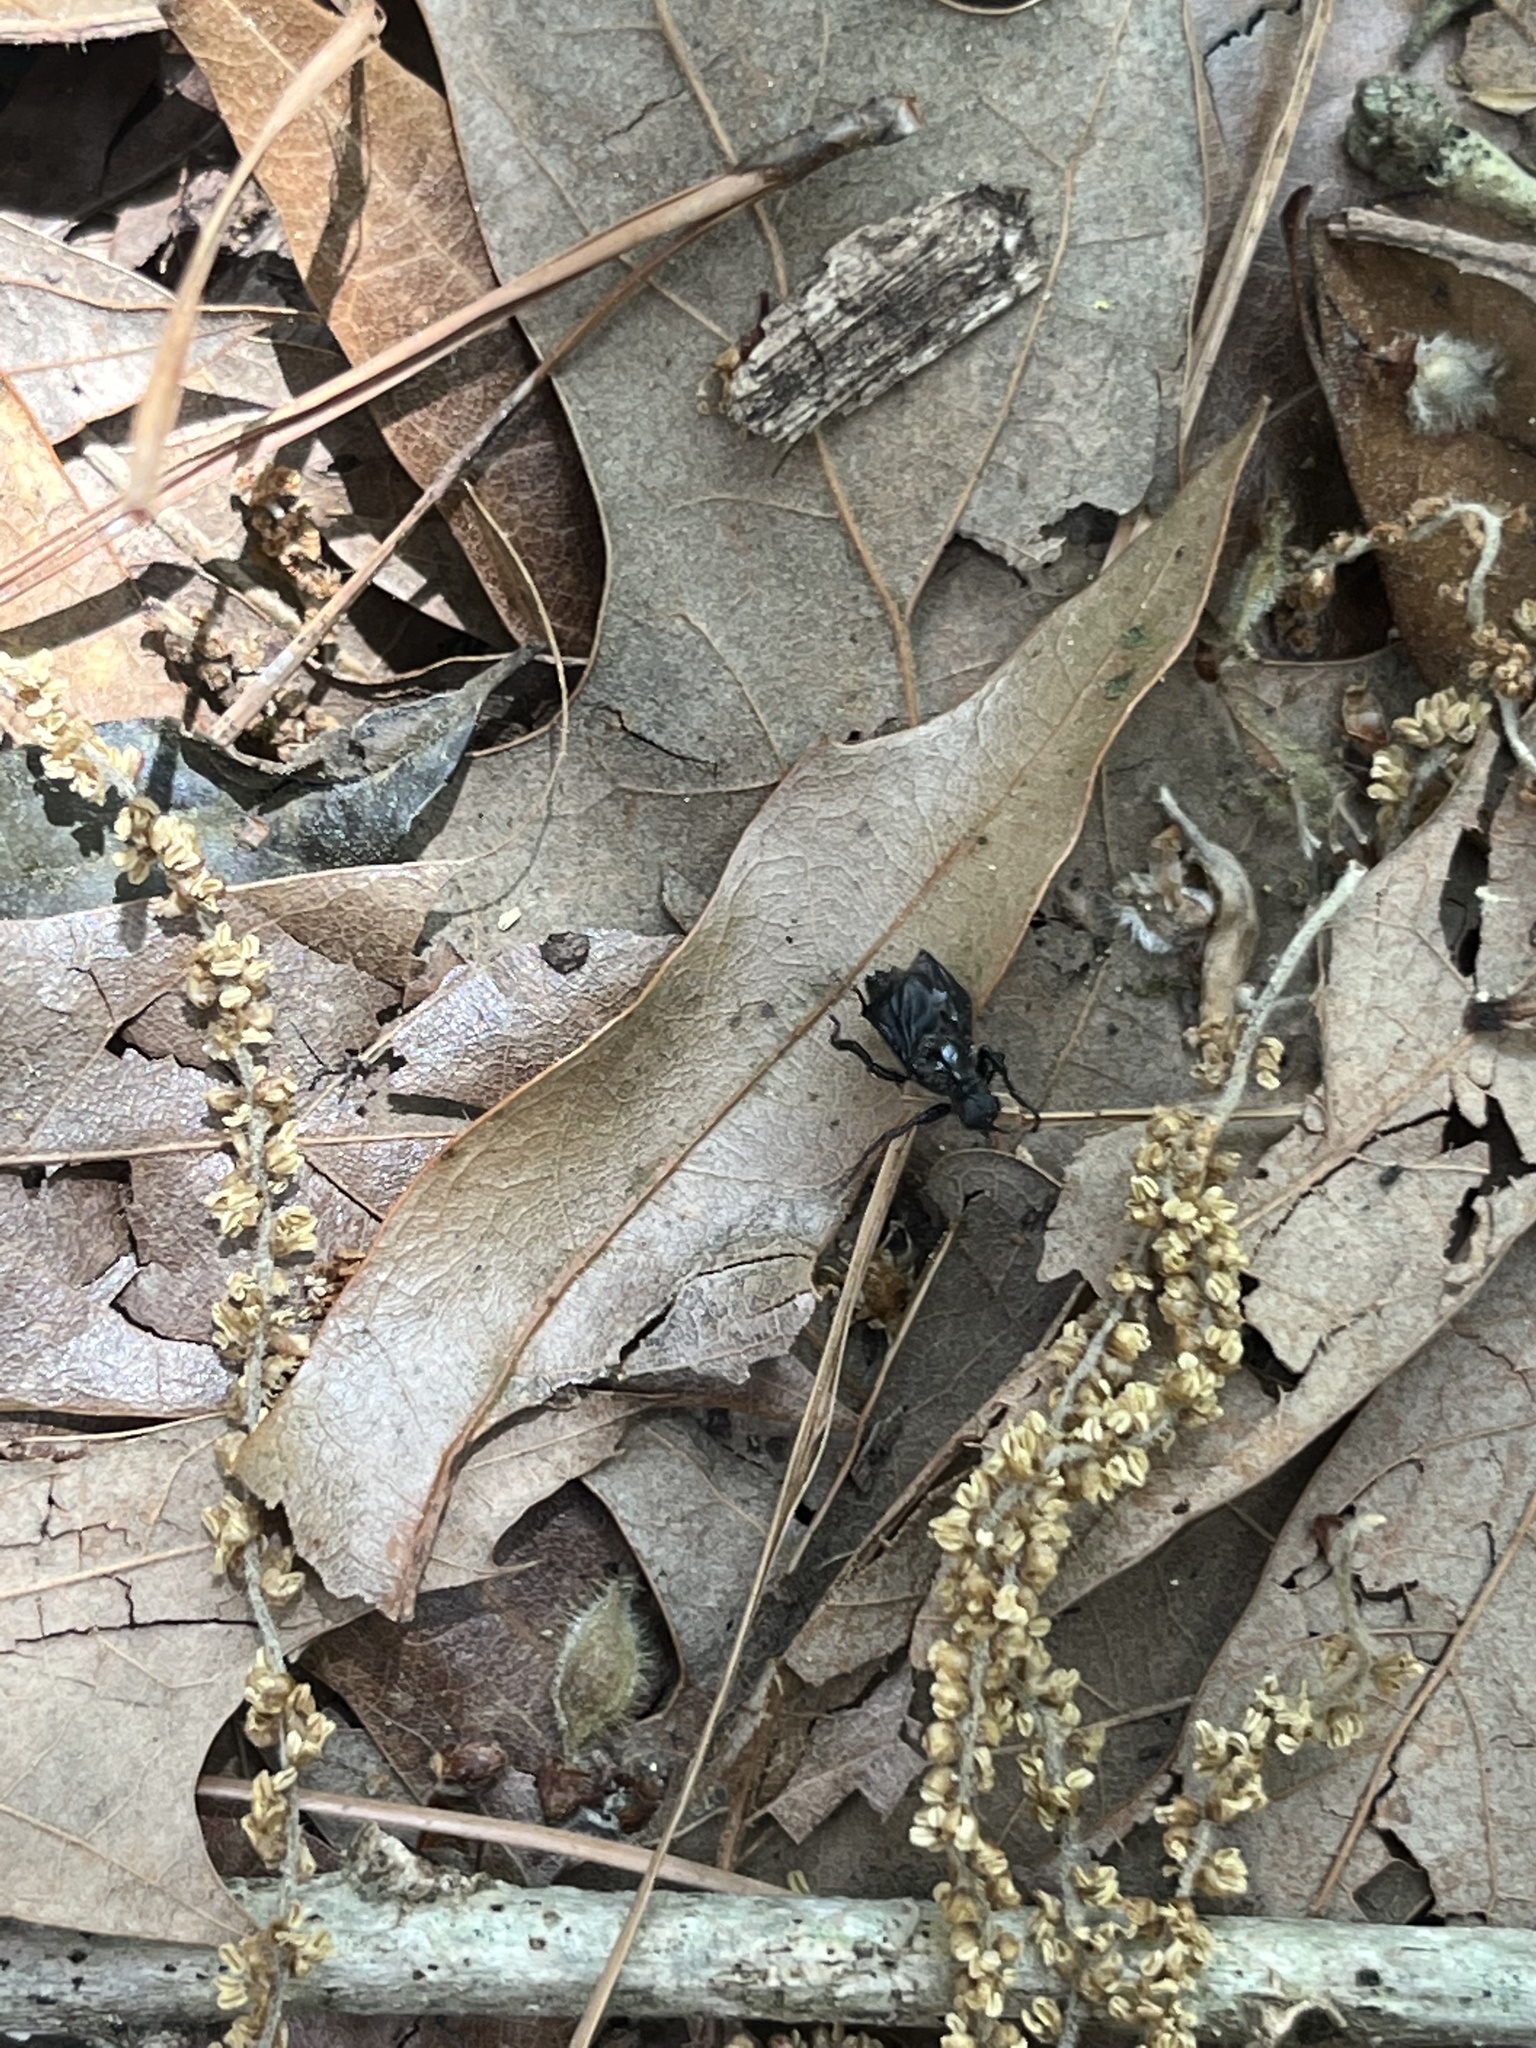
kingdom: Animalia
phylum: Arthropoda
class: Insecta
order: Diptera
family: Bibionidae
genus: Bibio
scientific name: Bibio superfluus
